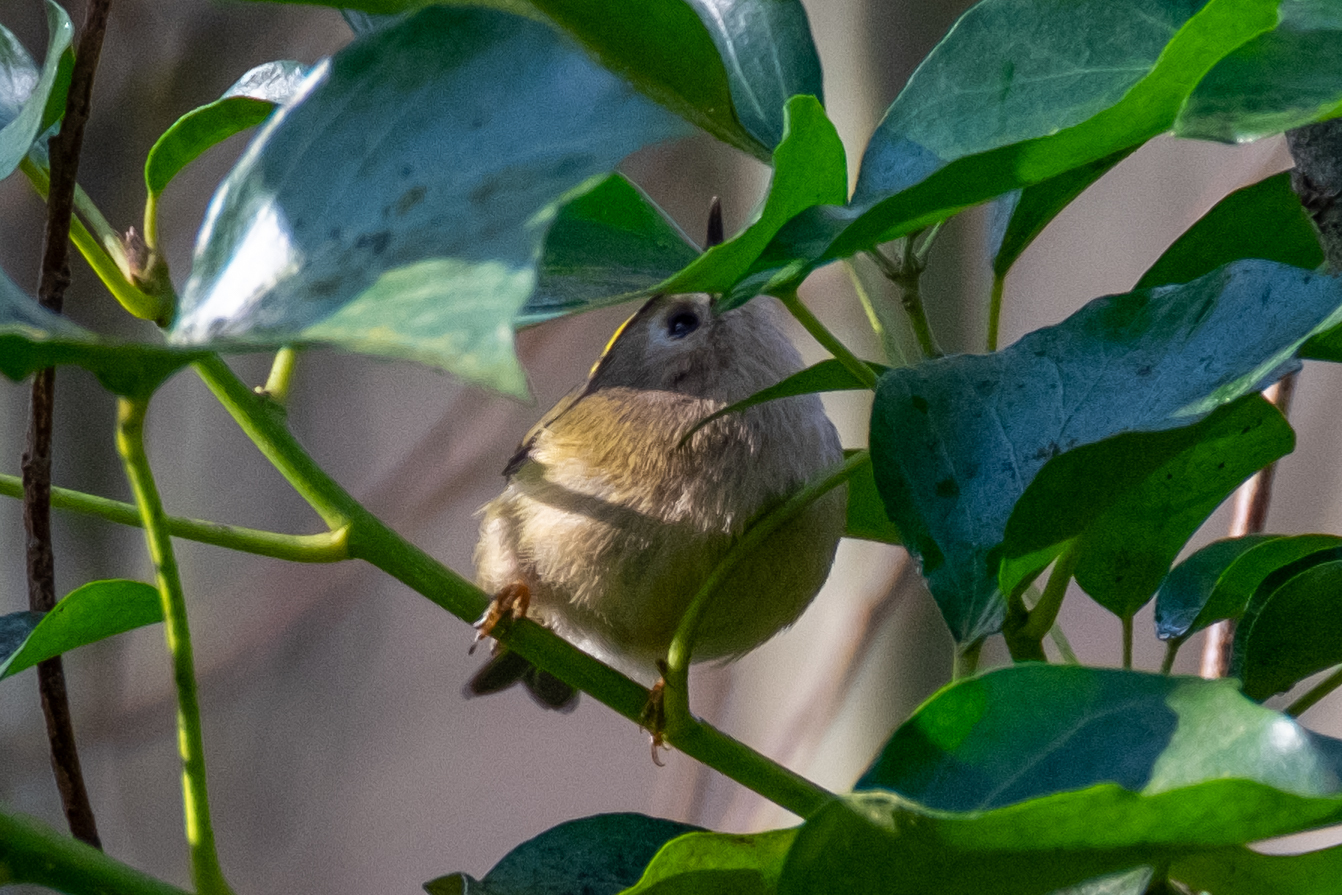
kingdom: Animalia
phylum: Chordata
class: Aves
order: Passeriformes
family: Regulidae
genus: Regulus
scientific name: Regulus regulus
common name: Goldcrest
